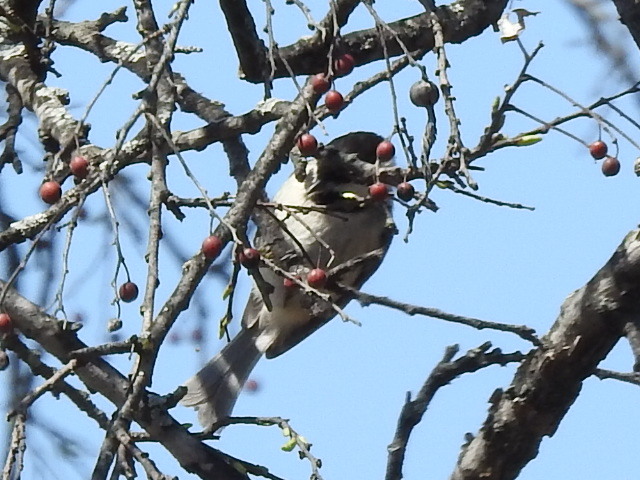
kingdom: Animalia
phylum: Chordata
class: Aves
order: Passeriformes
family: Paridae
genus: Poecile
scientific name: Poecile carolinensis
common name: Carolina chickadee
